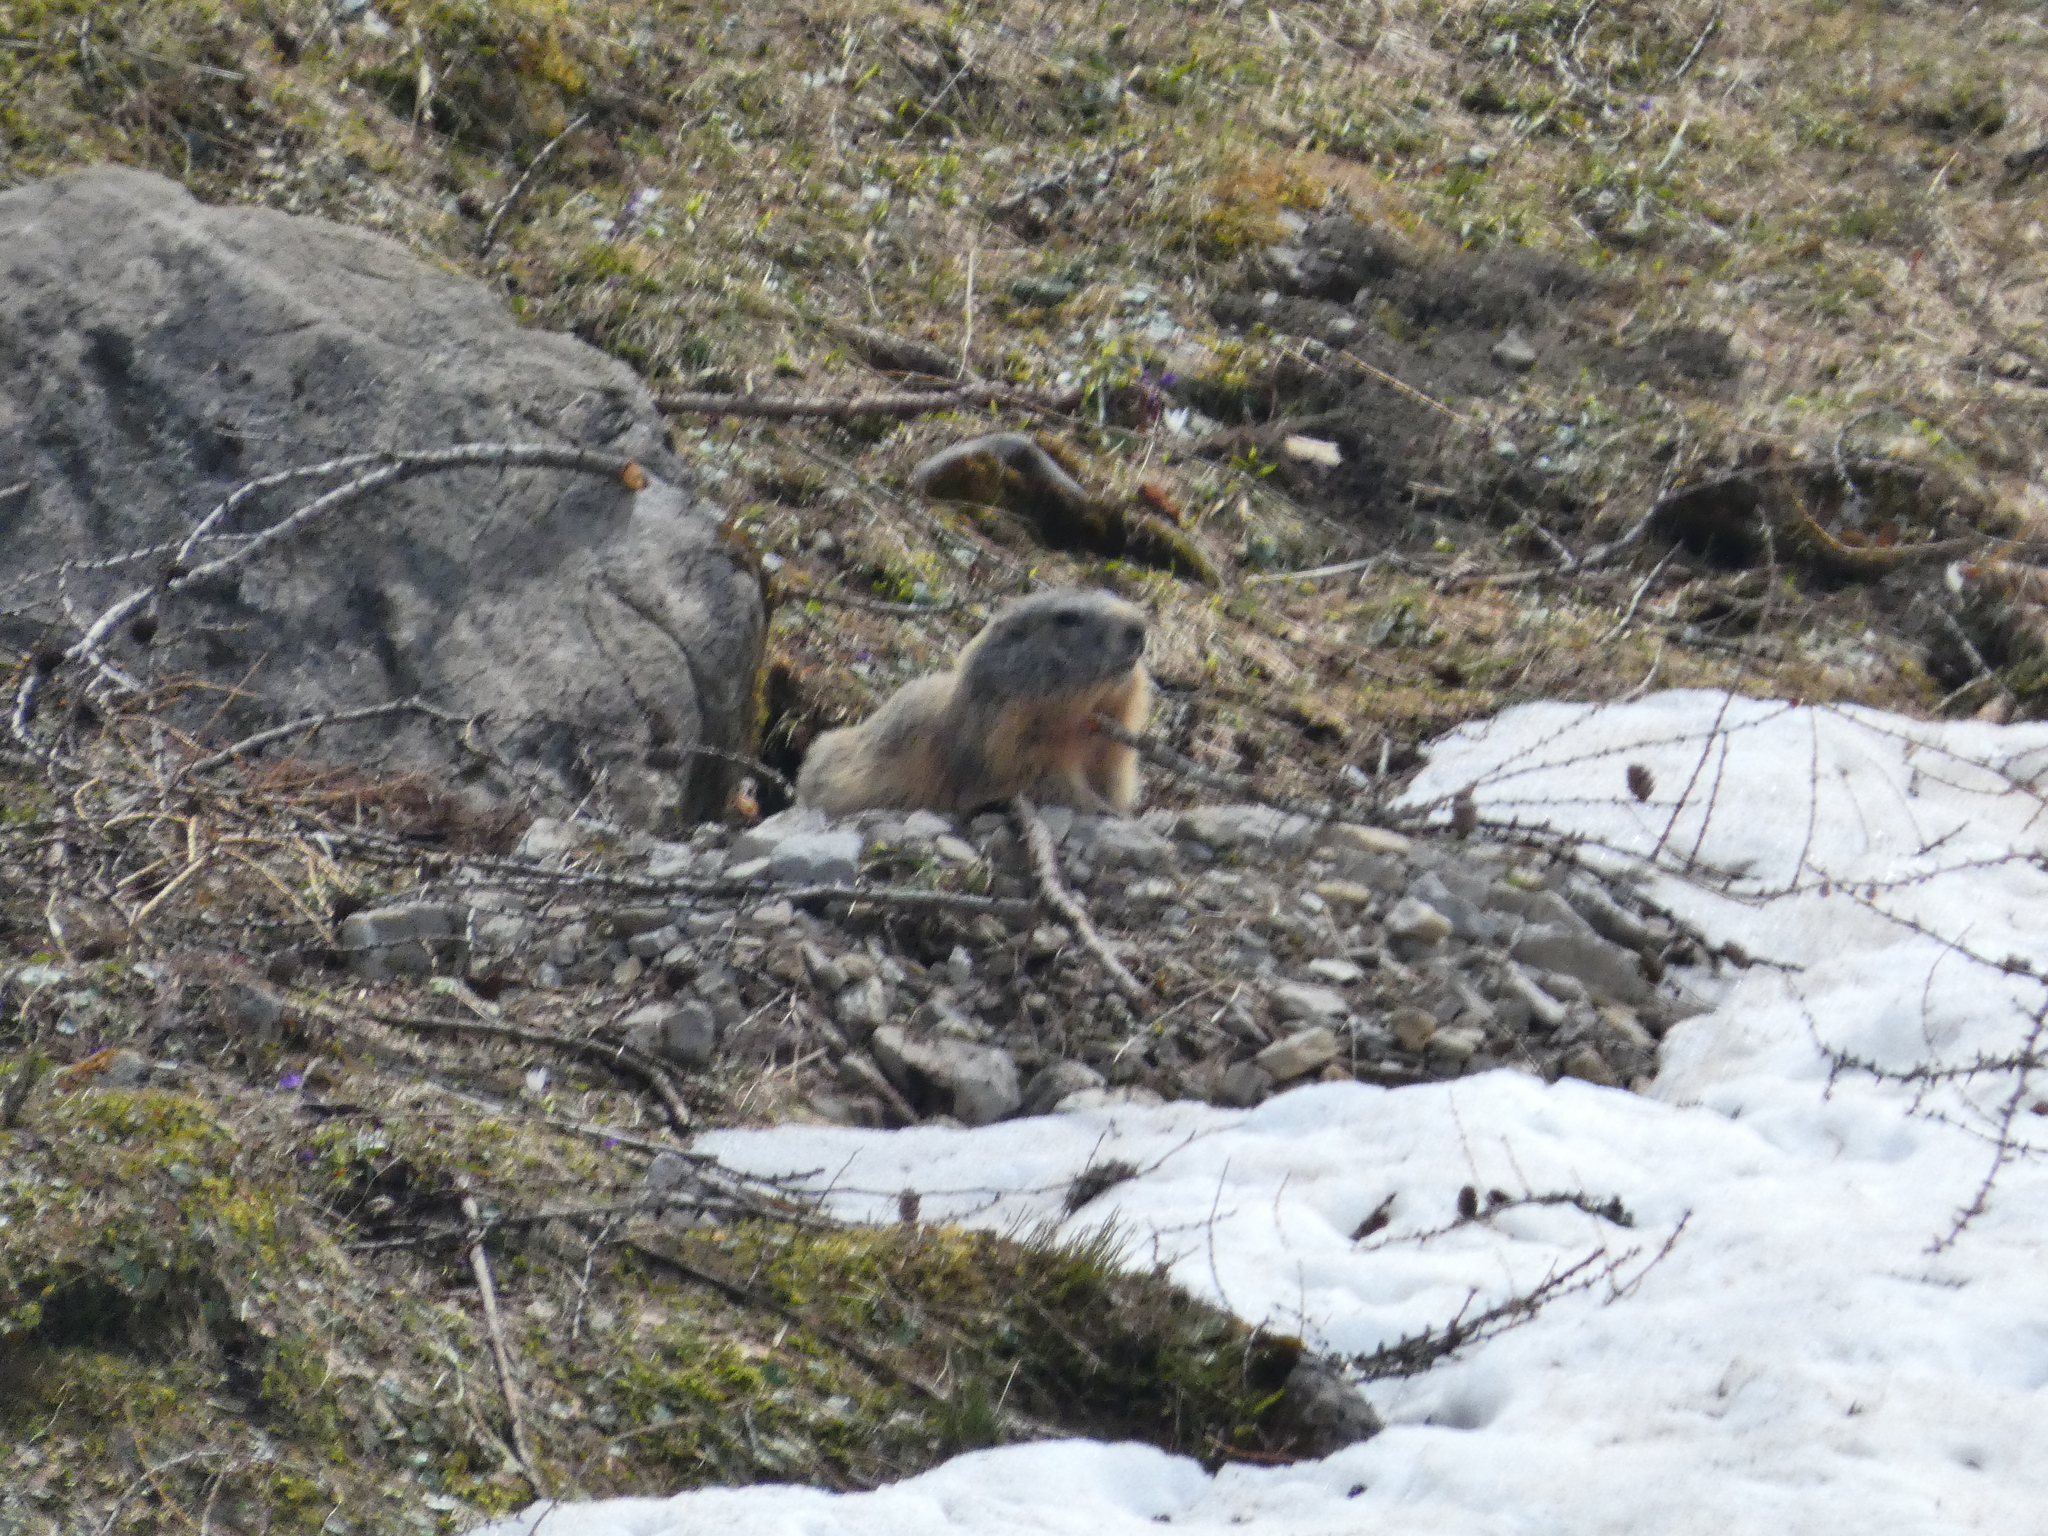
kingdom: Animalia
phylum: Chordata
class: Mammalia
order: Rodentia
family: Sciuridae
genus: Marmota
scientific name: Marmota marmota
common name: Alpine marmot
